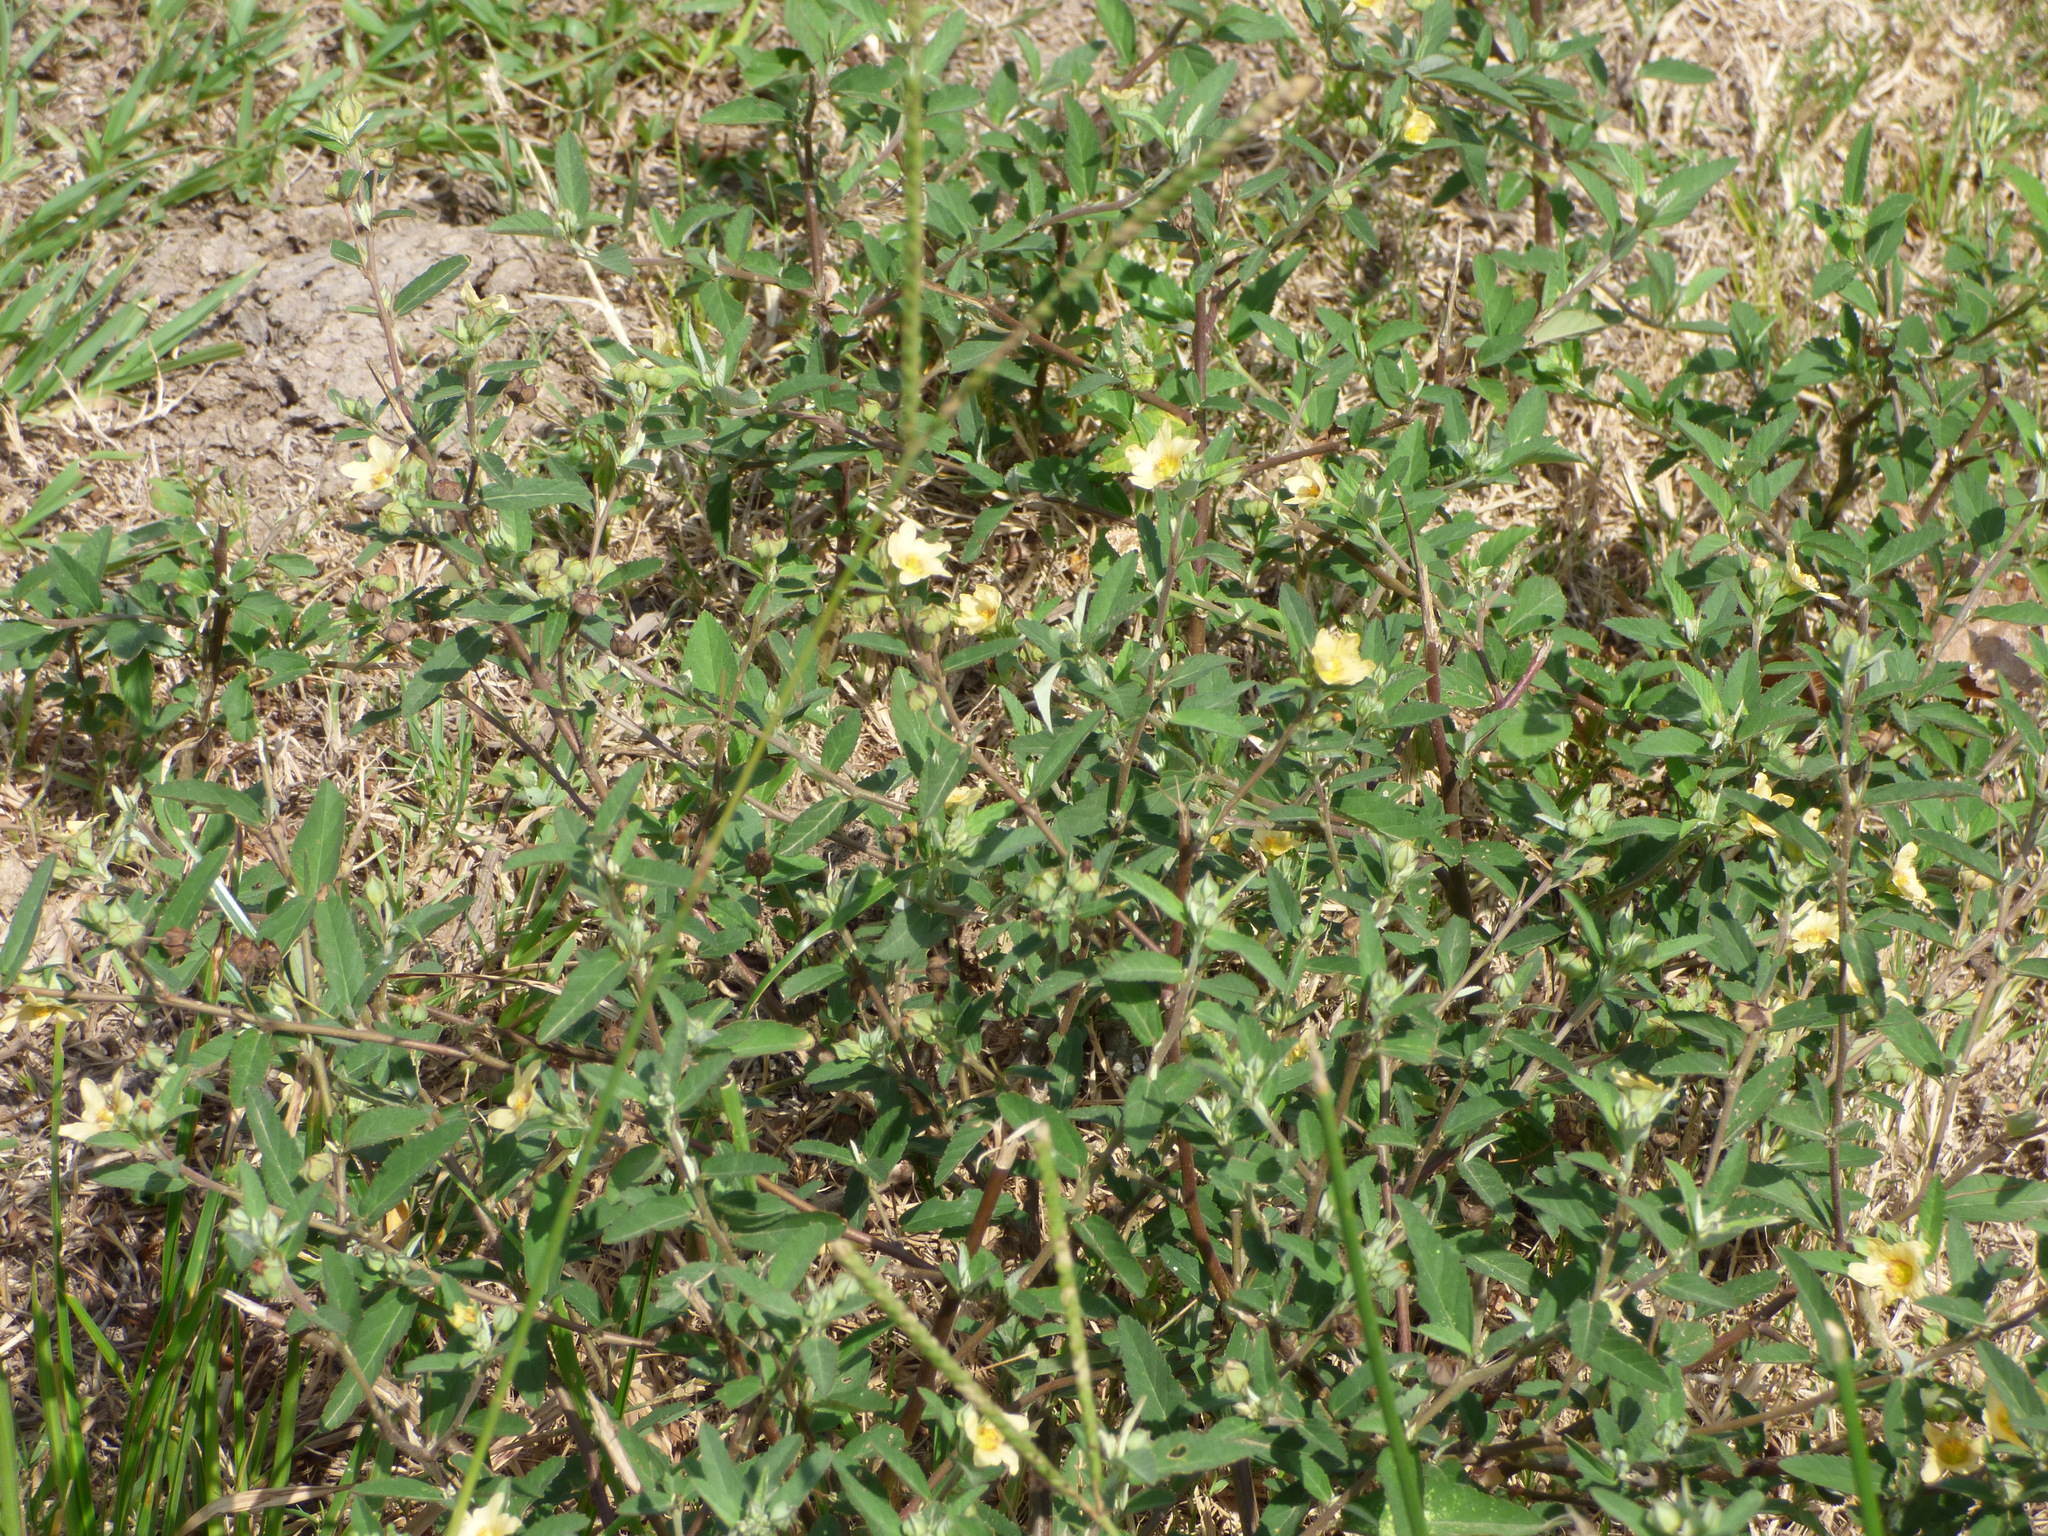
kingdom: Plantae
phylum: Tracheophyta
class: Magnoliopsida
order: Malvales
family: Malvaceae
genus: Sida
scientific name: Sida rhombifolia
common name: Queensland-hemp
